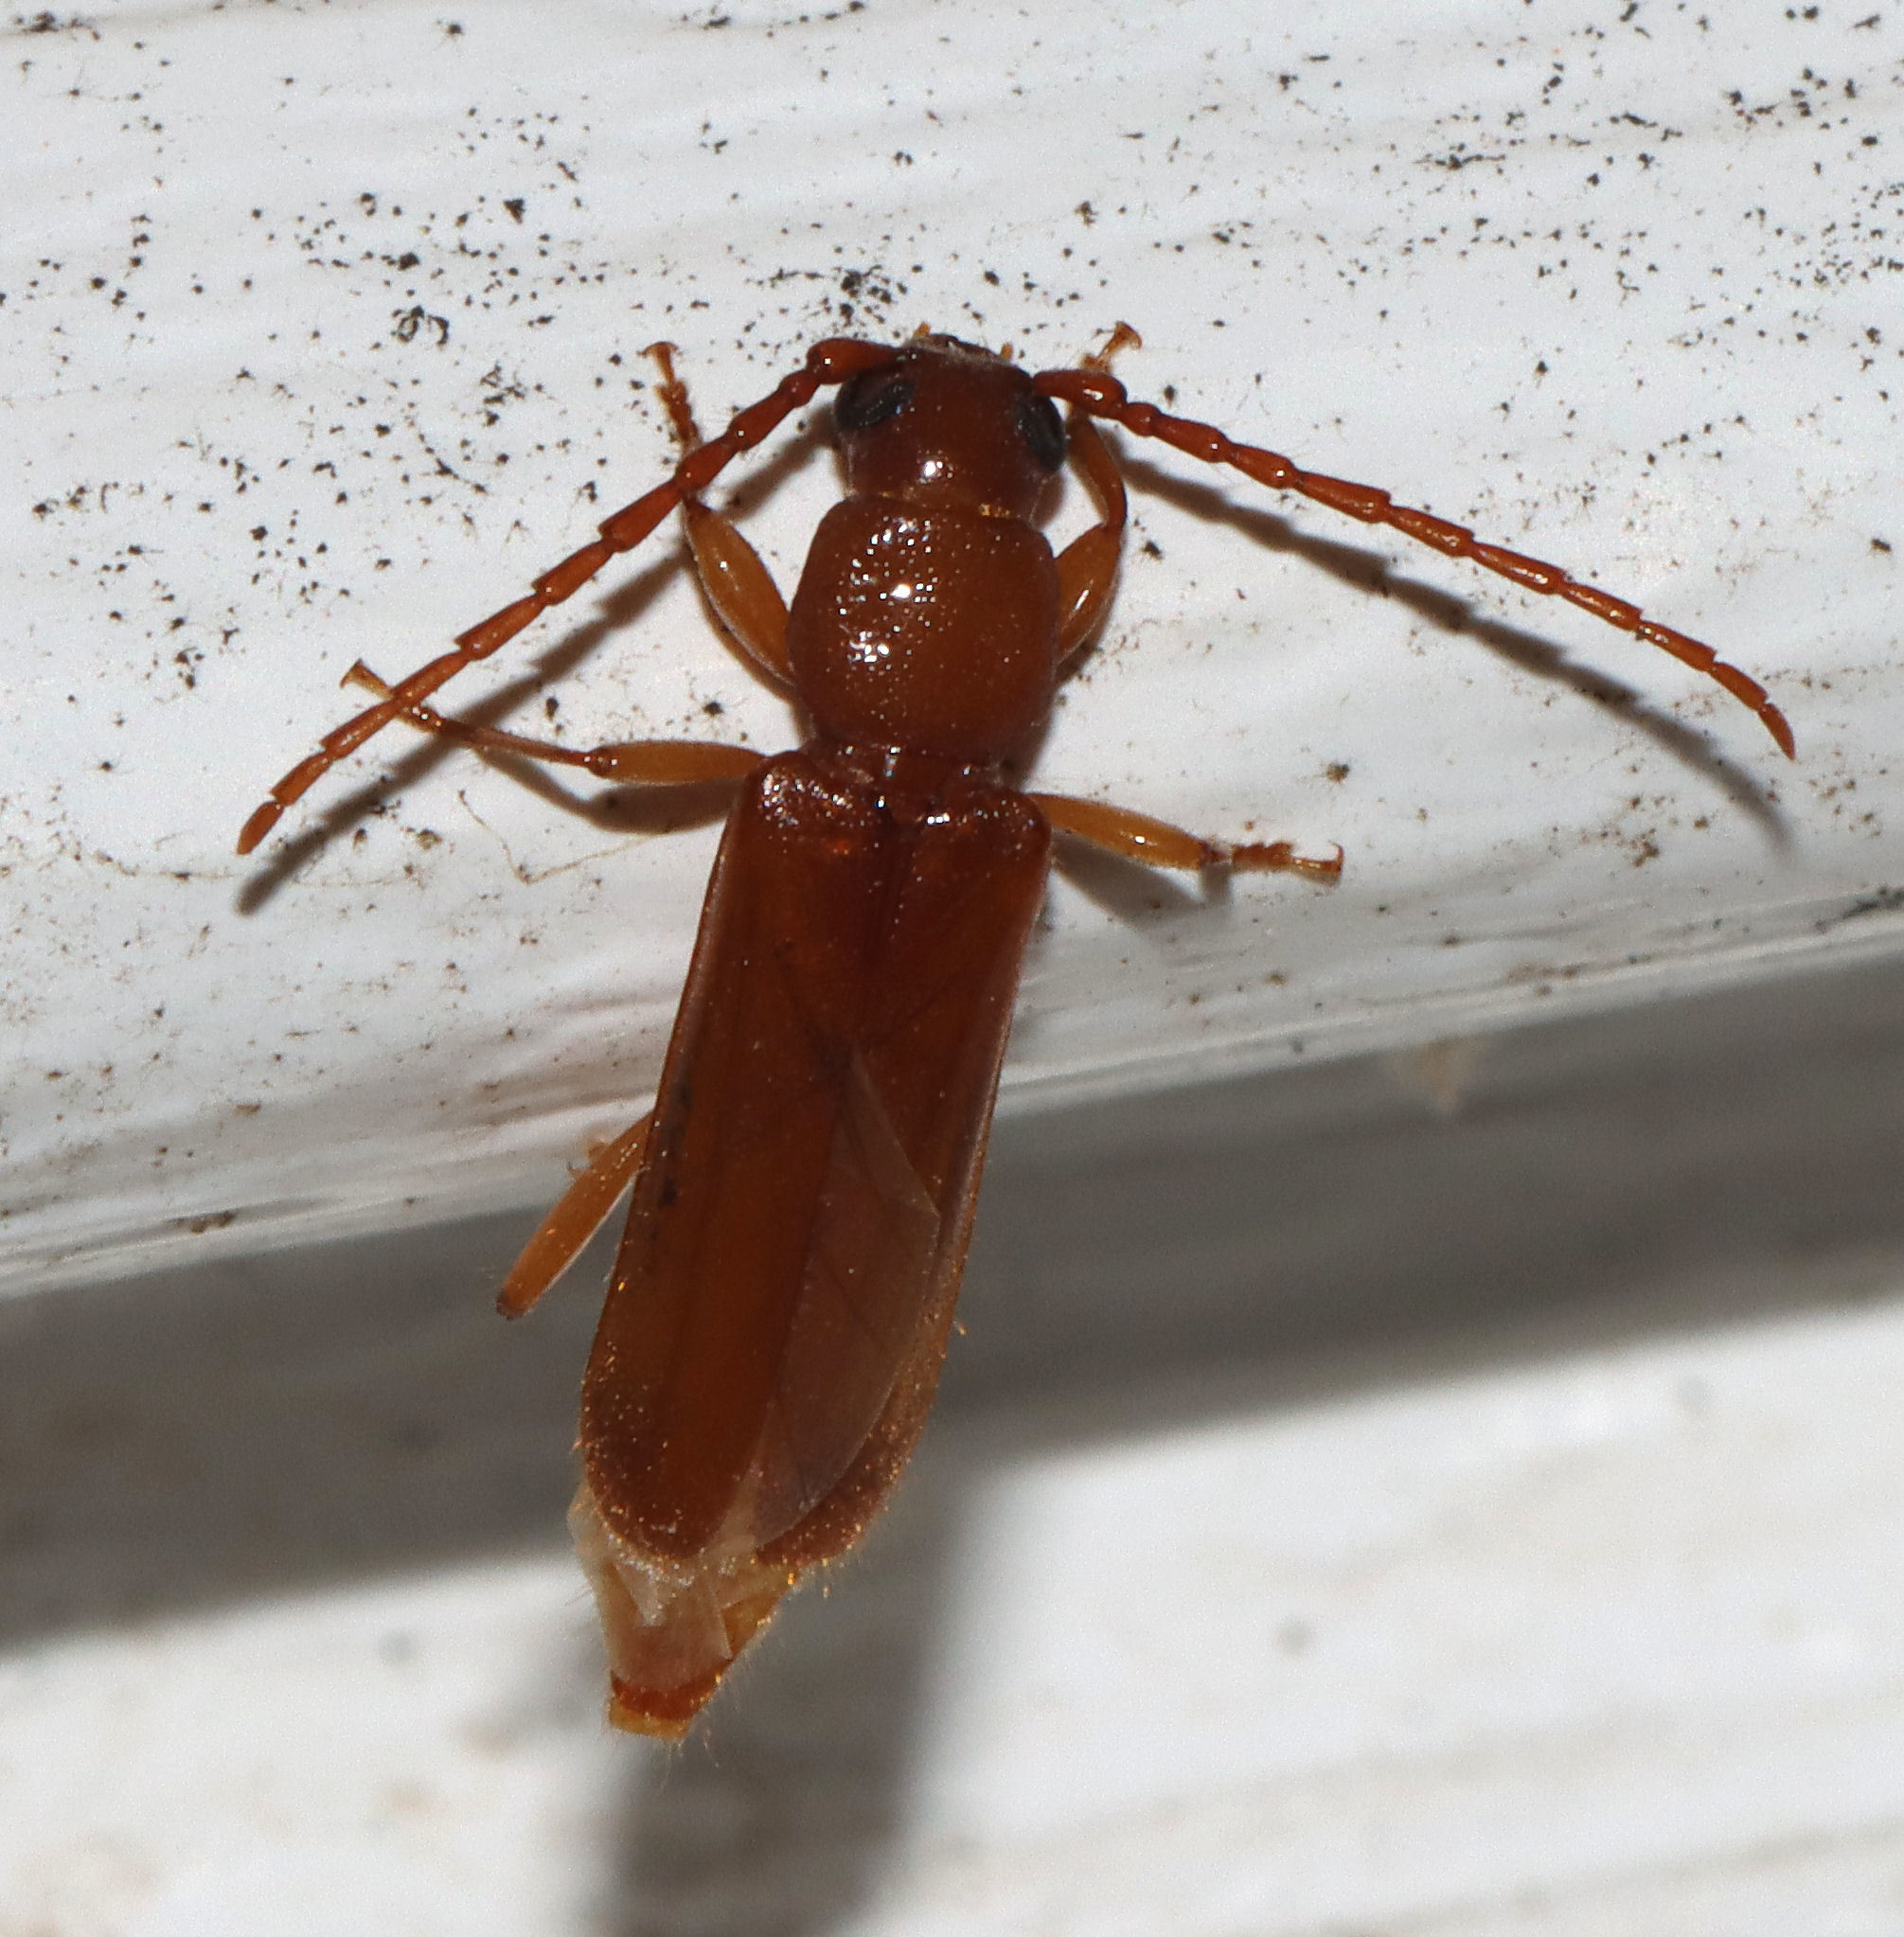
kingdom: Animalia
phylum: Arthropoda
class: Insecta
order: Coleoptera
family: Cerambycidae
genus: Smodicum
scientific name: Smodicum cucujiforme
